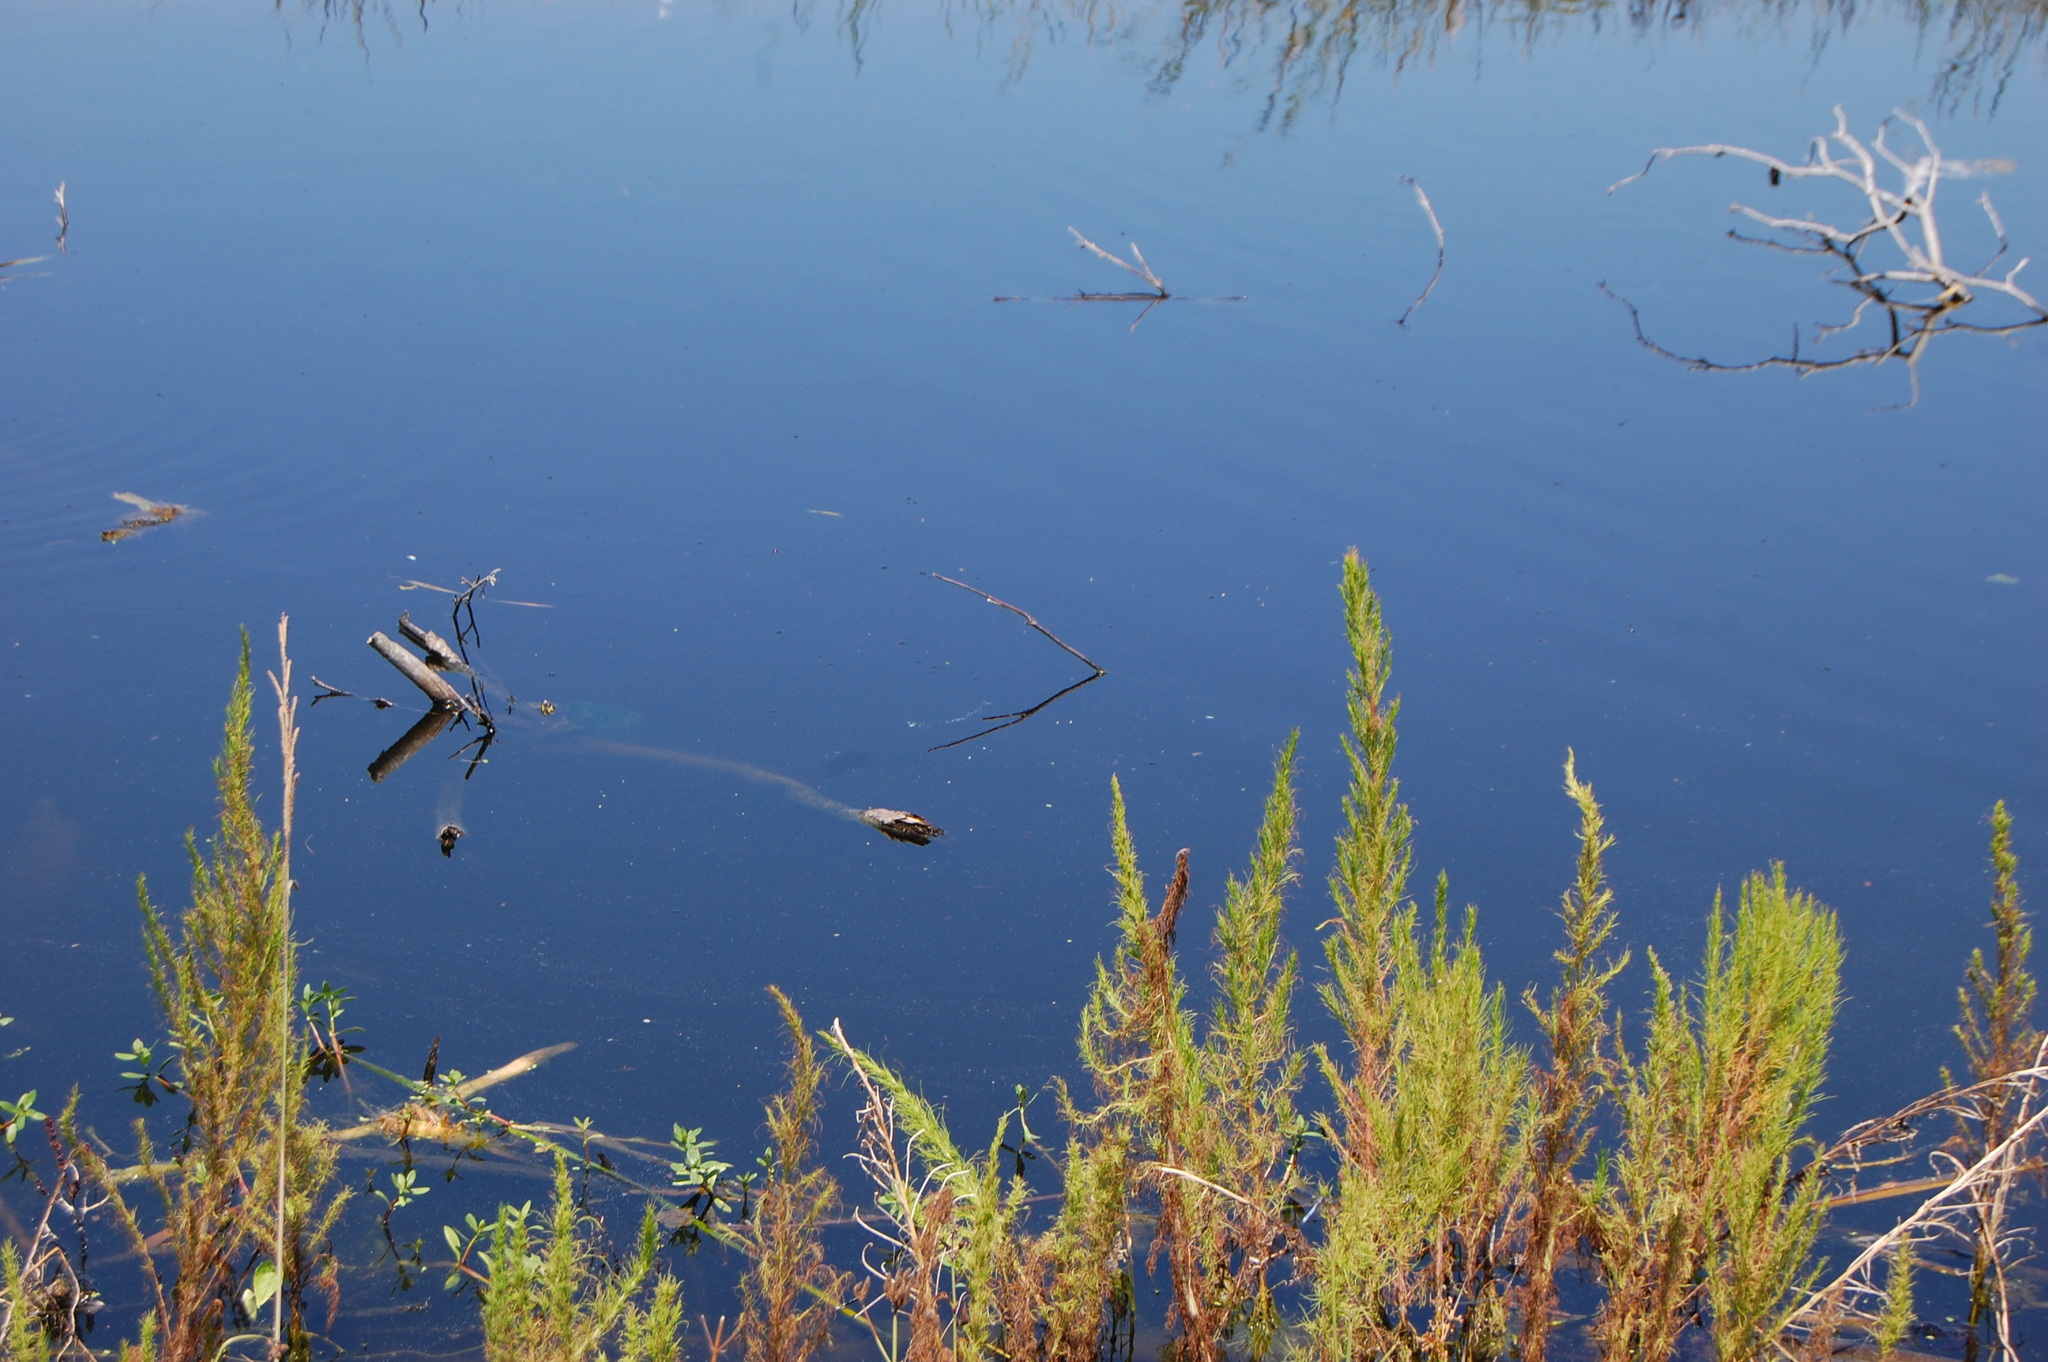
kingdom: Animalia
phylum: Chordata
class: Testudines
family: Emydidae
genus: Trachemys
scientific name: Trachemys scripta
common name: Slider
